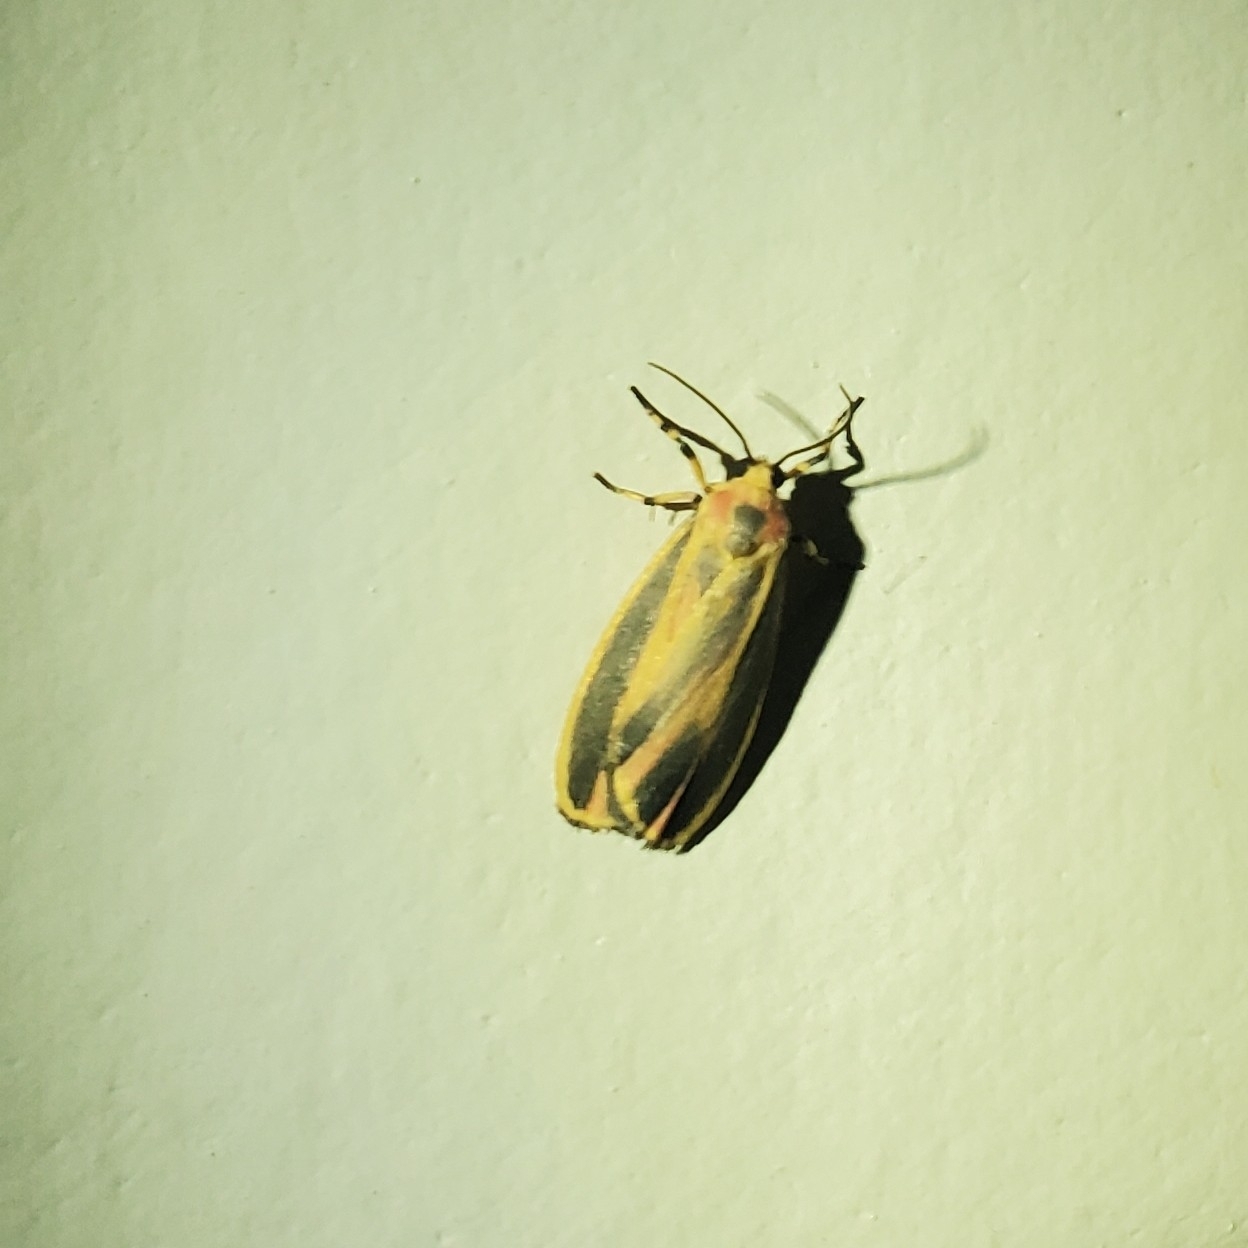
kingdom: Animalia
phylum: Arthropoda
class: Insecta
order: Lepidoptera
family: Erebidae
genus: Hypoprepia
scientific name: Hypoprepia fucosa
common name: Painted lichen moth
